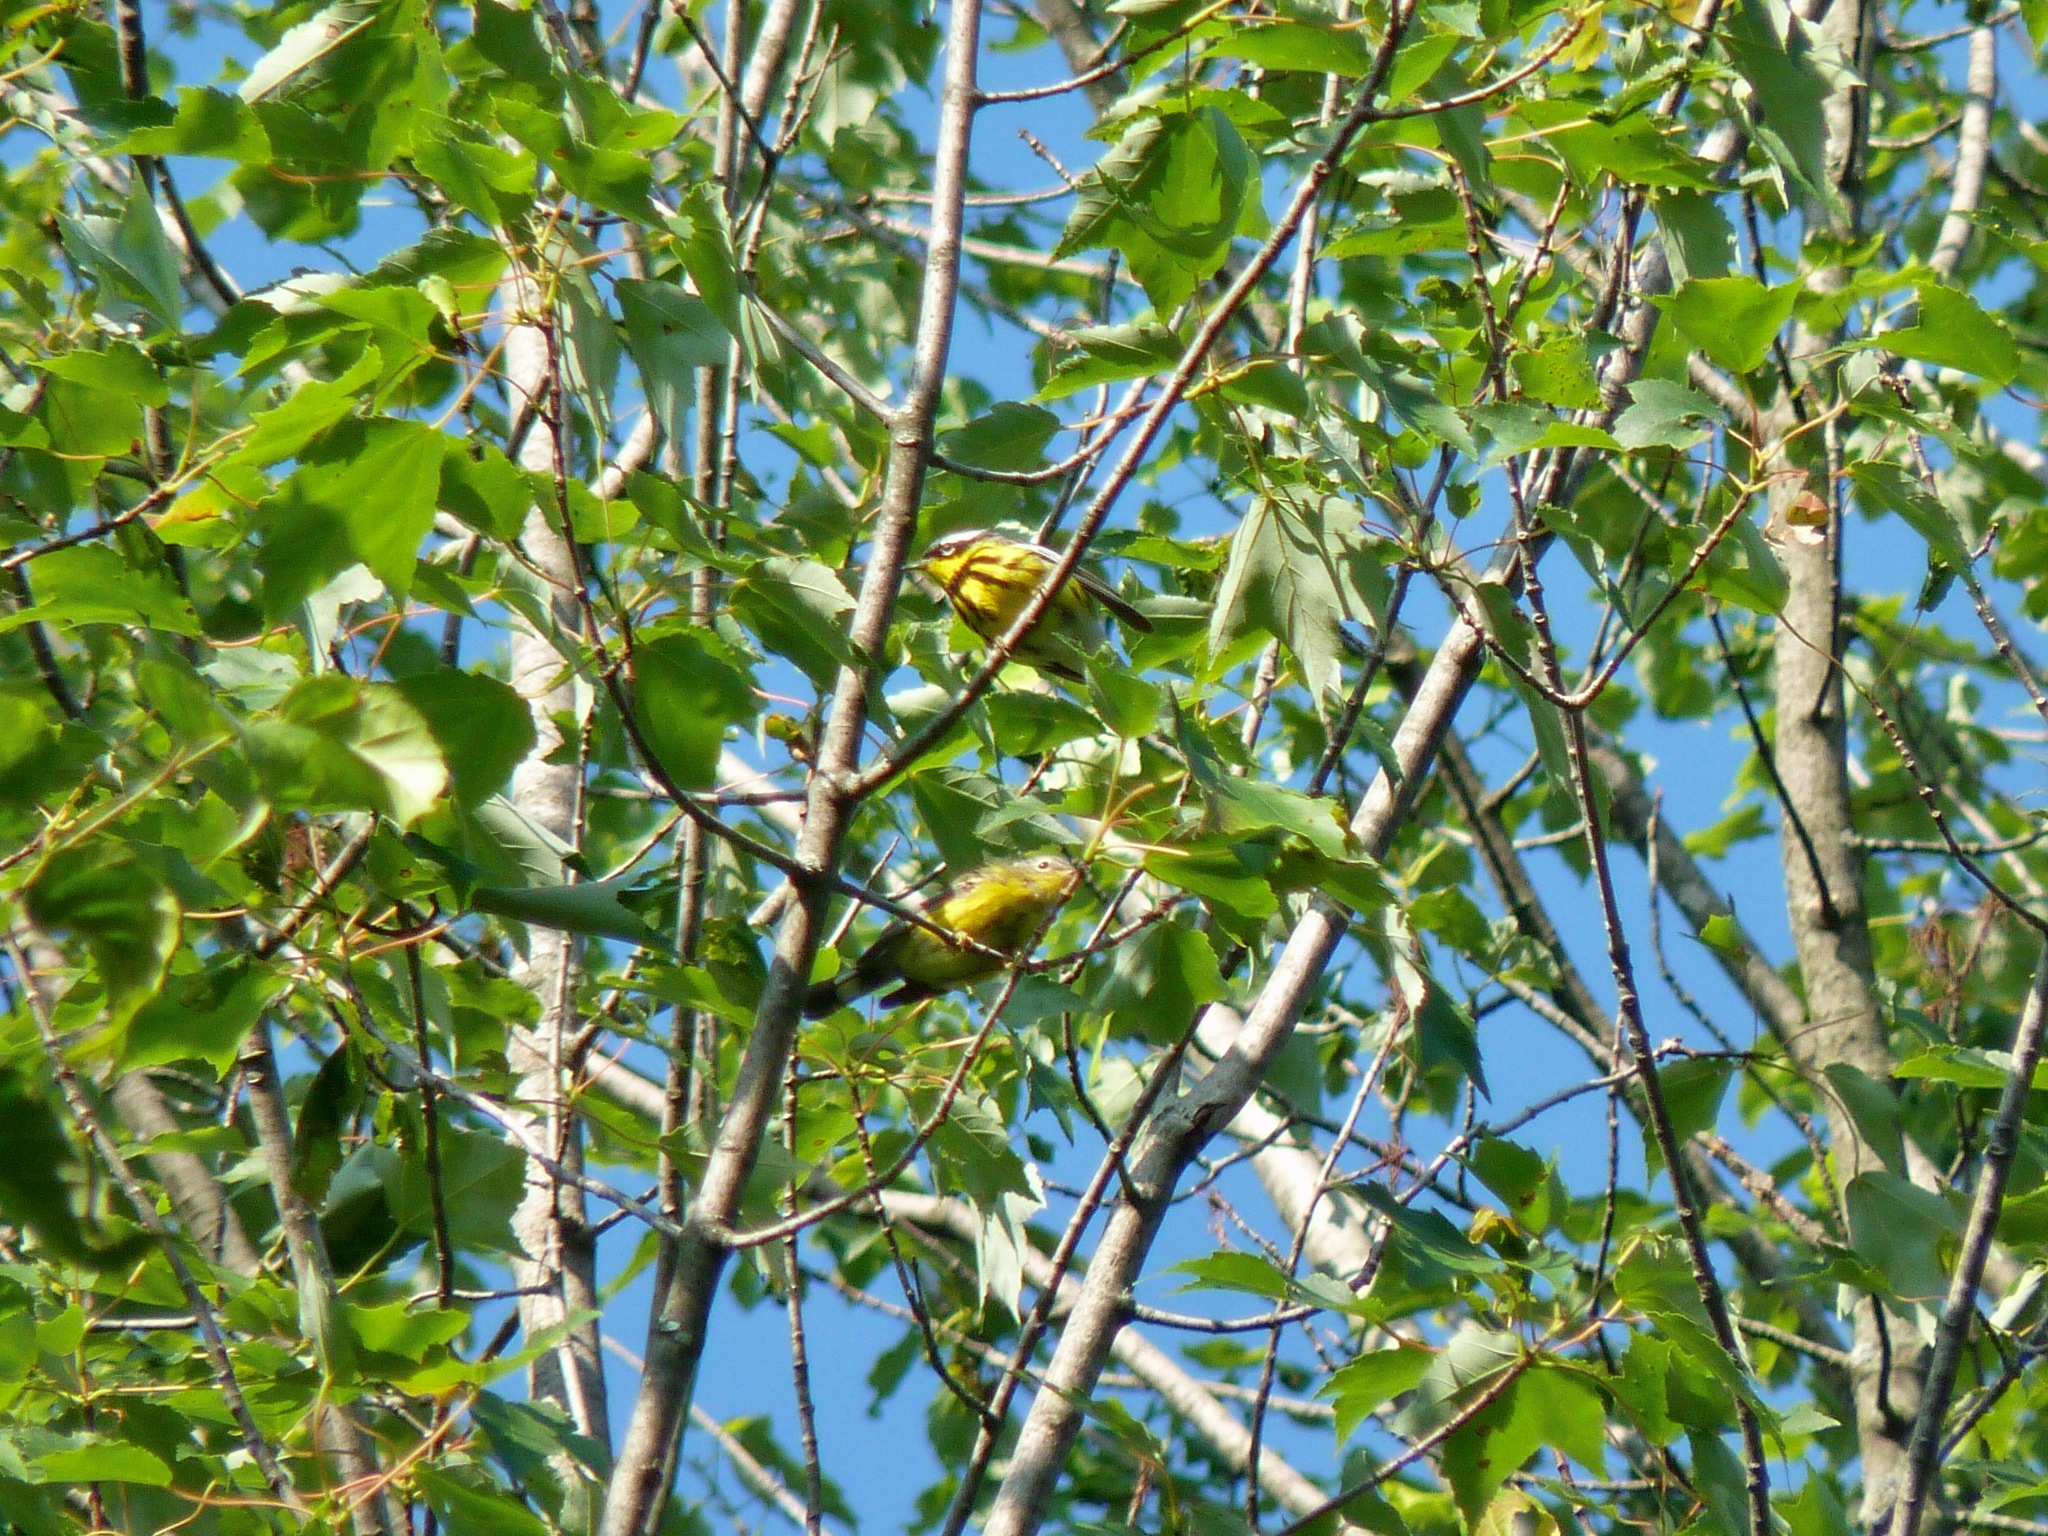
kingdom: Animalia
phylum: Chordata
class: Aves
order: Passeriformes
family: Parulidae
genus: Setophaga
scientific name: Setophaga magnolia
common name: Magnolia warbler
